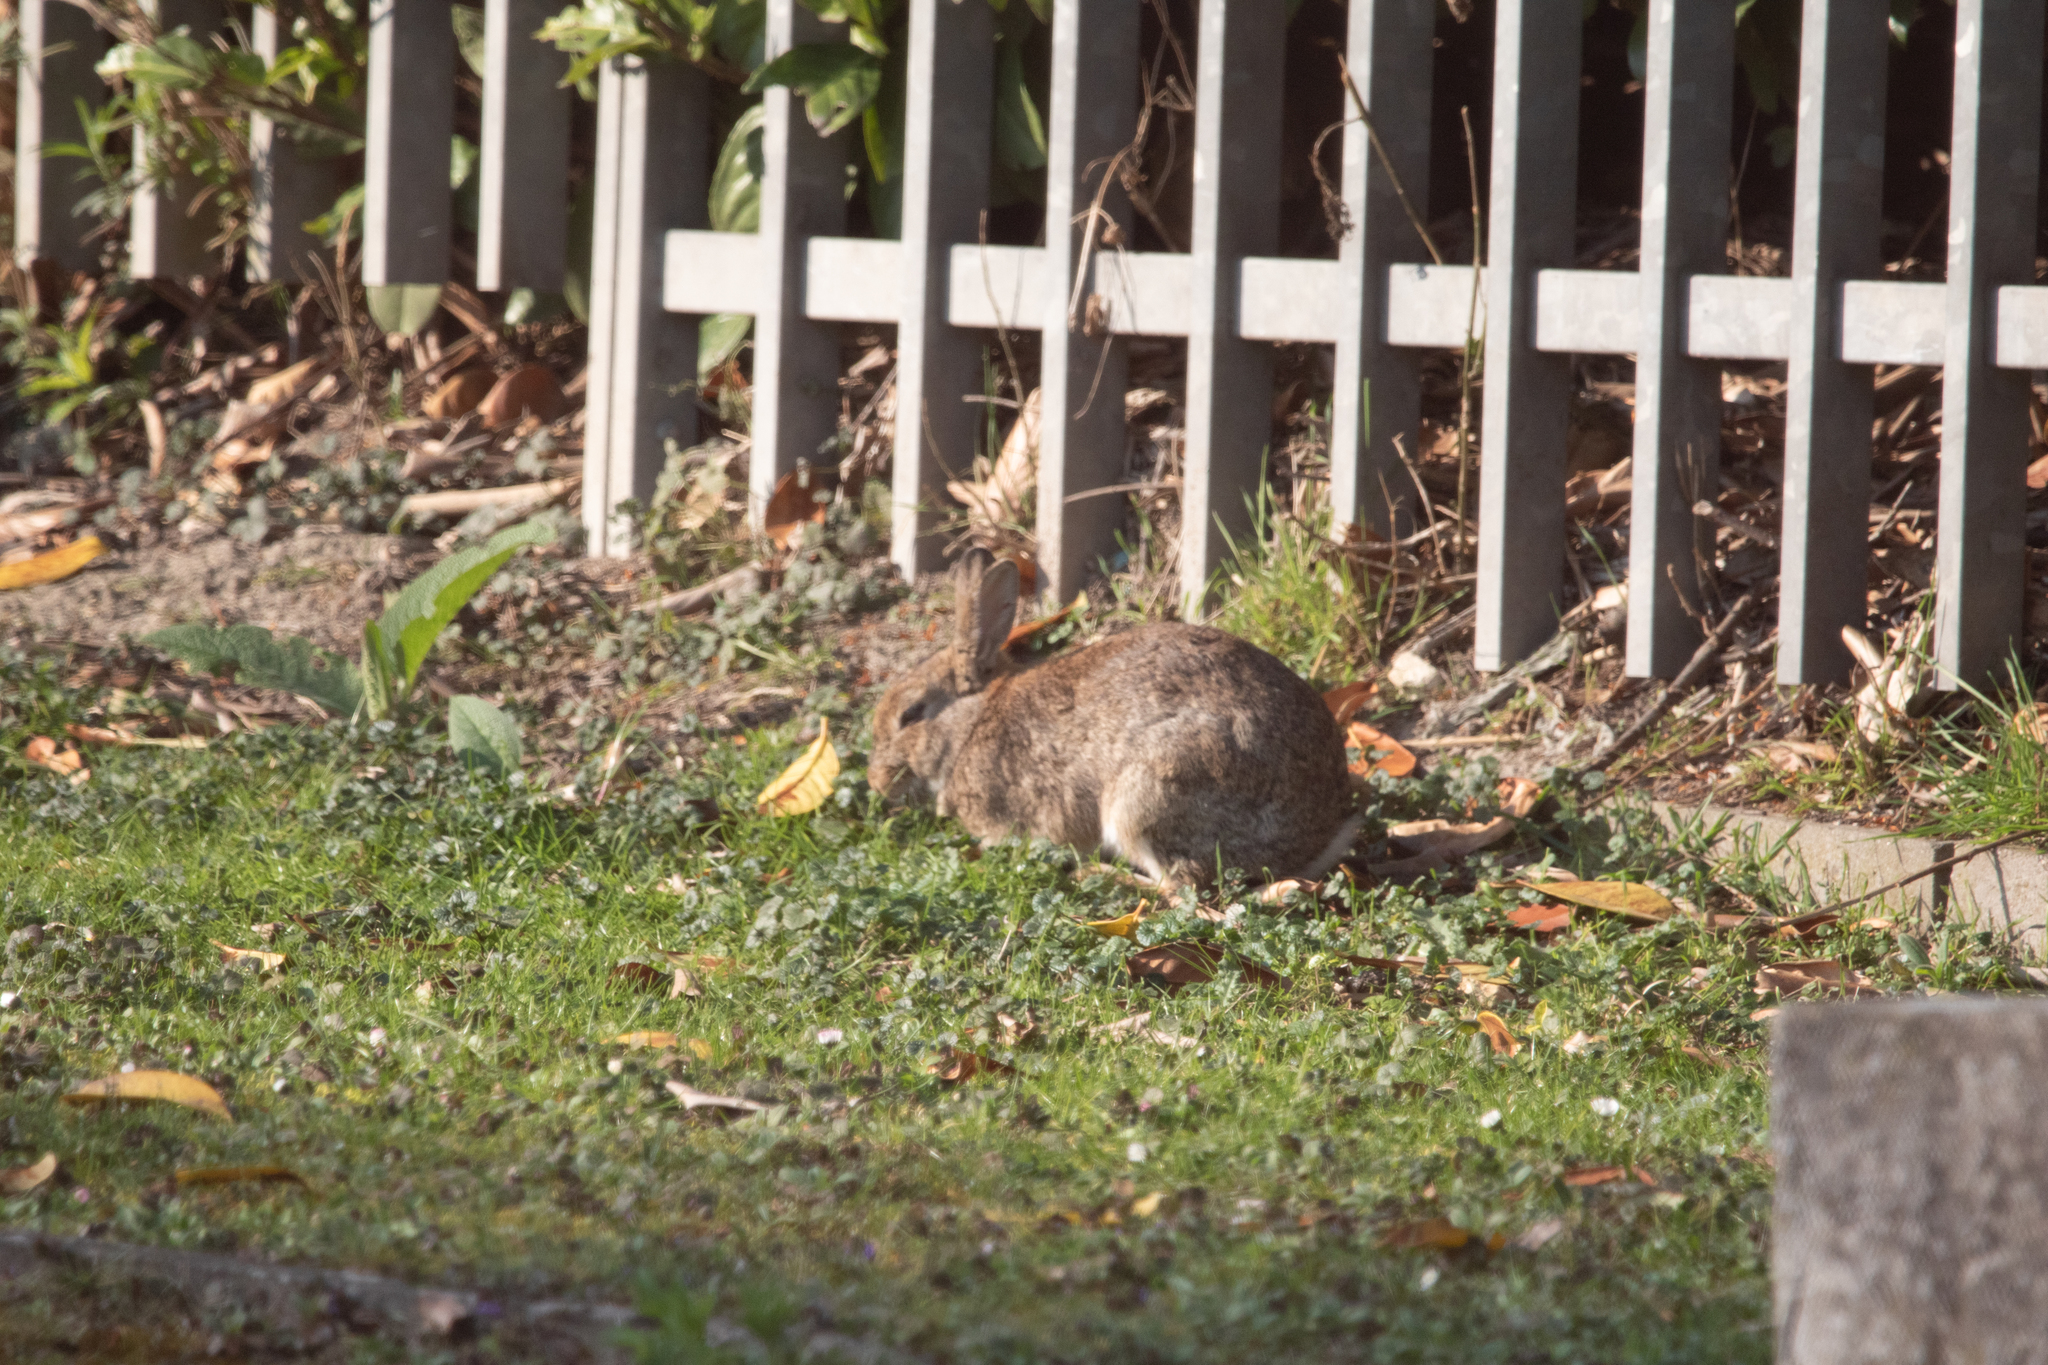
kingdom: Animalia
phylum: Chordata
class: Mammalia
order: Lagomorpha
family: Leporidae
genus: Oryctolagus
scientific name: Oryctolagus cuniculus
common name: European rabbit
